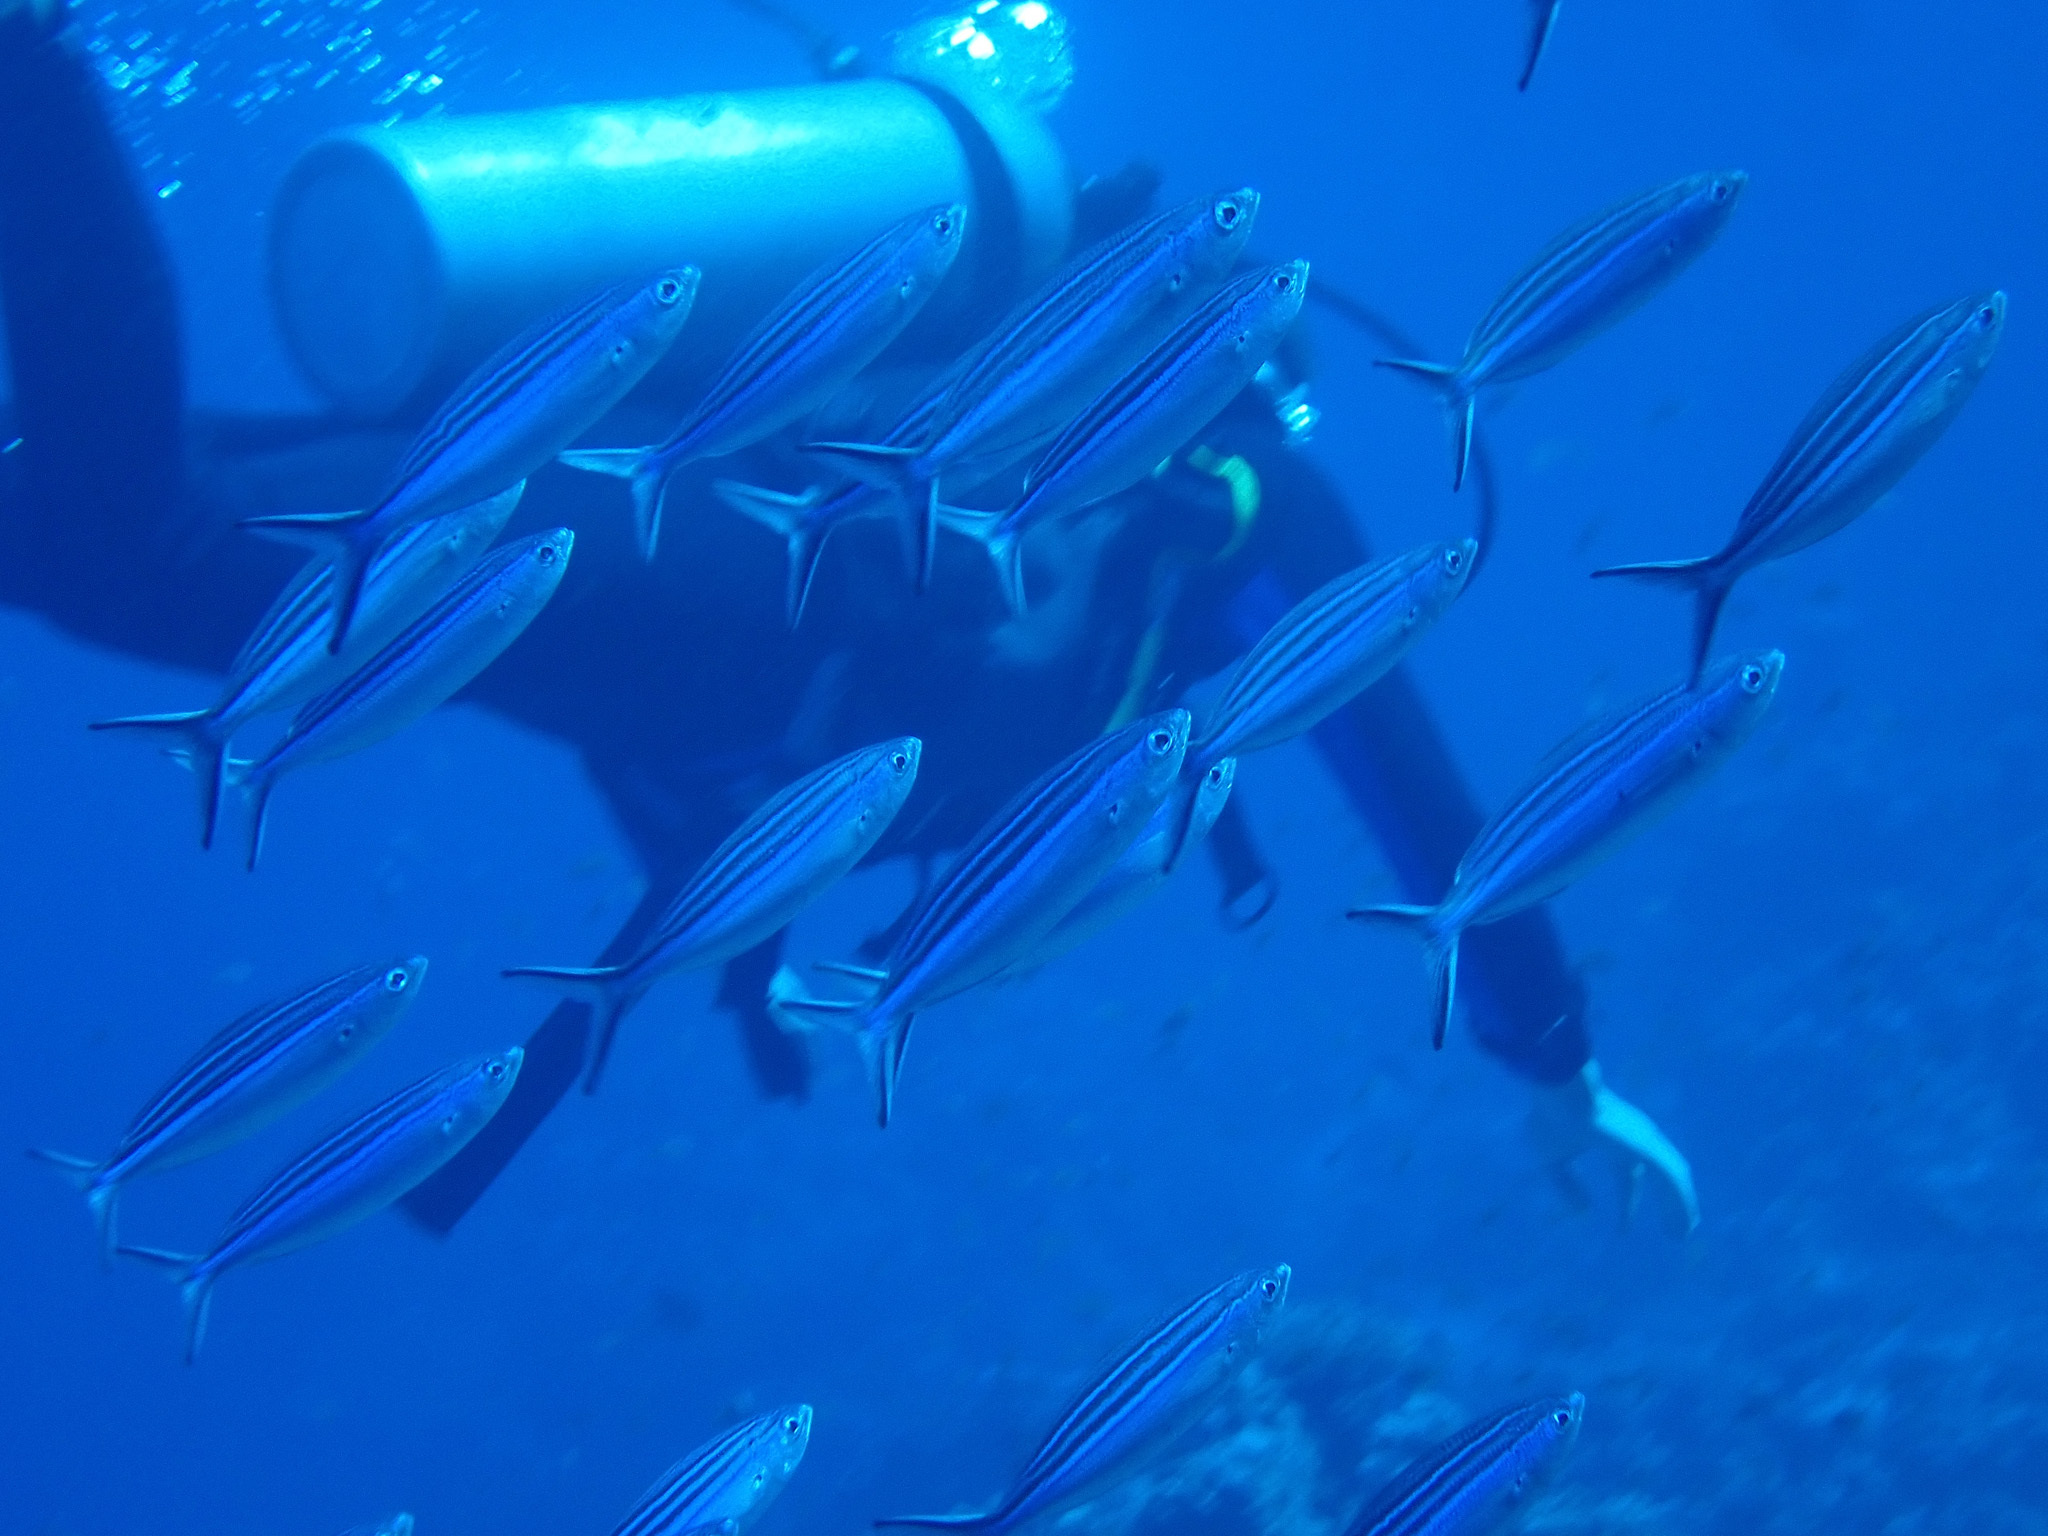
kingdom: Animalia
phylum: Chordata
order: Perciformes
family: Caesionidae
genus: Caesio
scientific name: Caesio striata
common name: Striated fusilier
